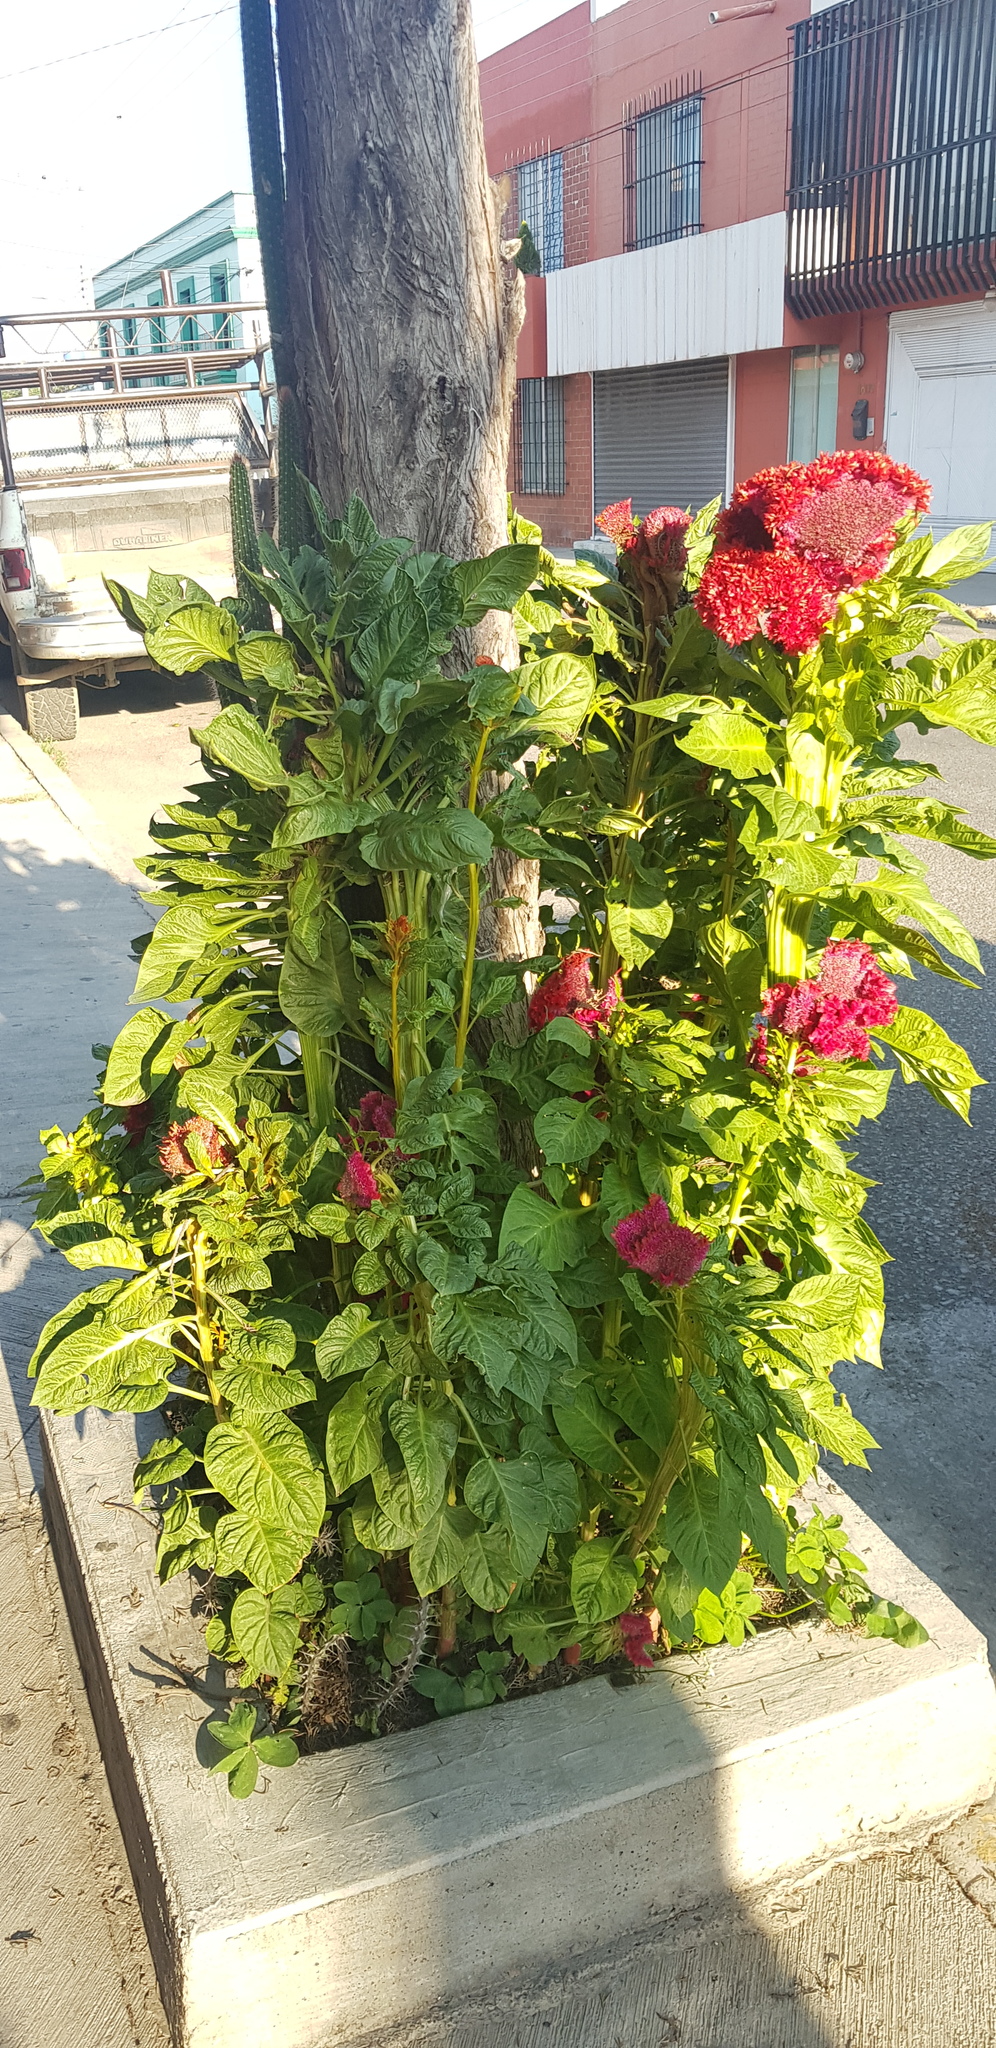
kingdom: Plantae
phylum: Tracheophyta
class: Magnoliopsida
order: Caryophyllales
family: Amaranthaceae
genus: Celosia
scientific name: Celosia argentea
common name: Feather cockscomb
